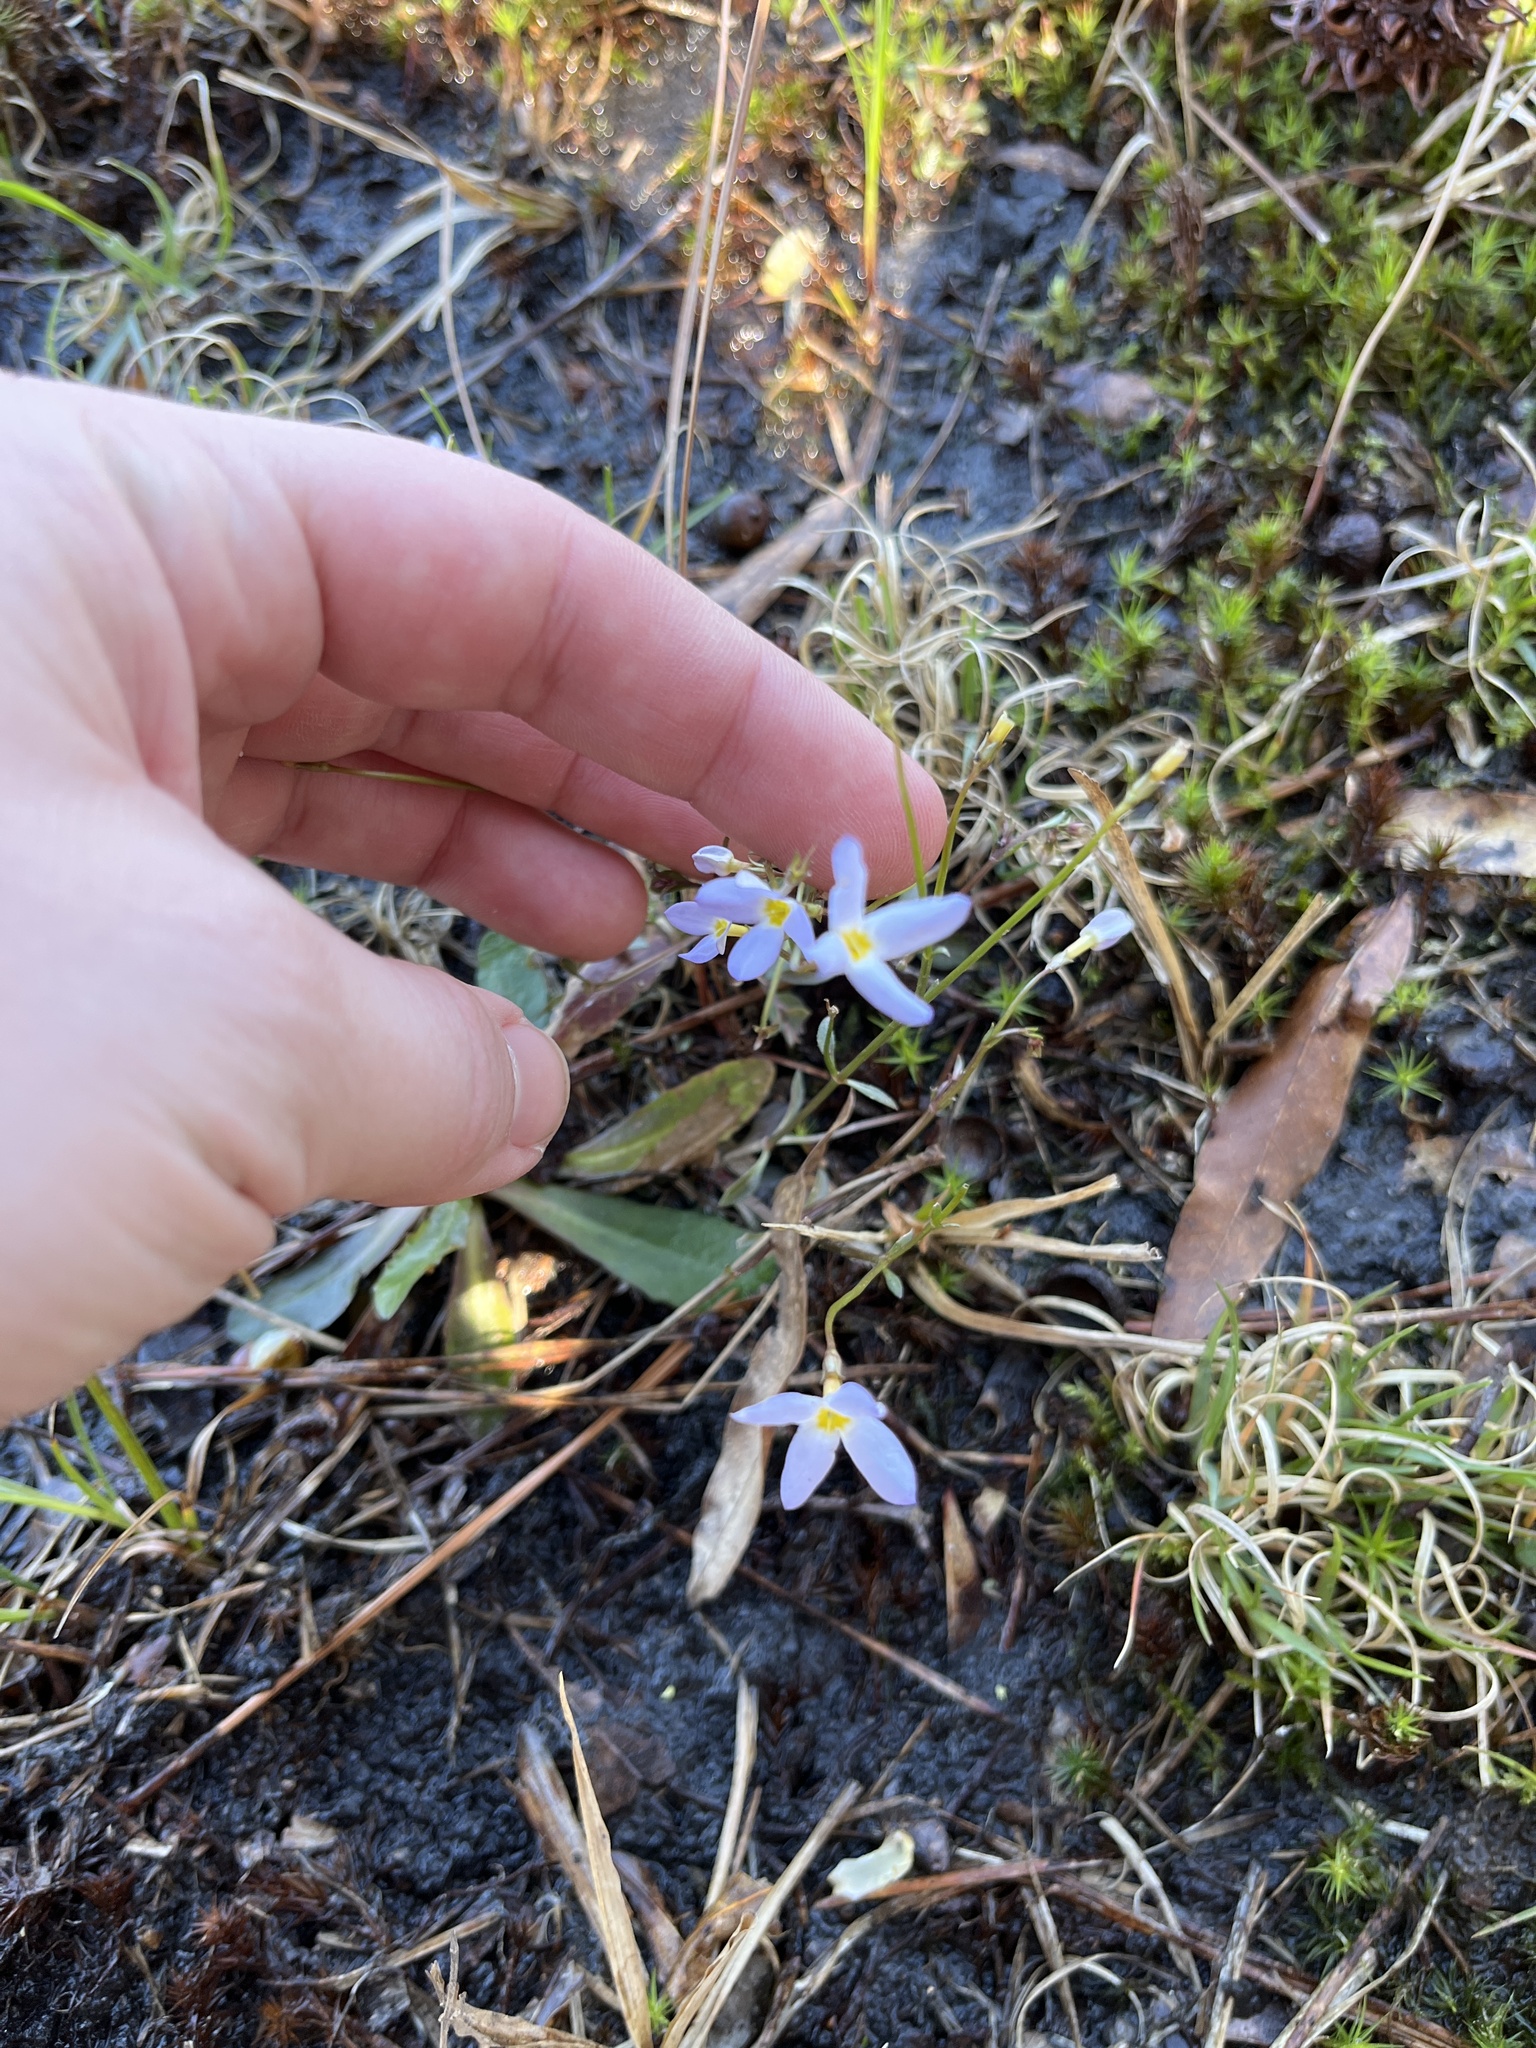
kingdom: Plantae
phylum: Tracheophyta
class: Magnoliopsida
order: Gentianales
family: Rubiaceae
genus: Houstonia
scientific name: Houstonia caerulea
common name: Bluets
